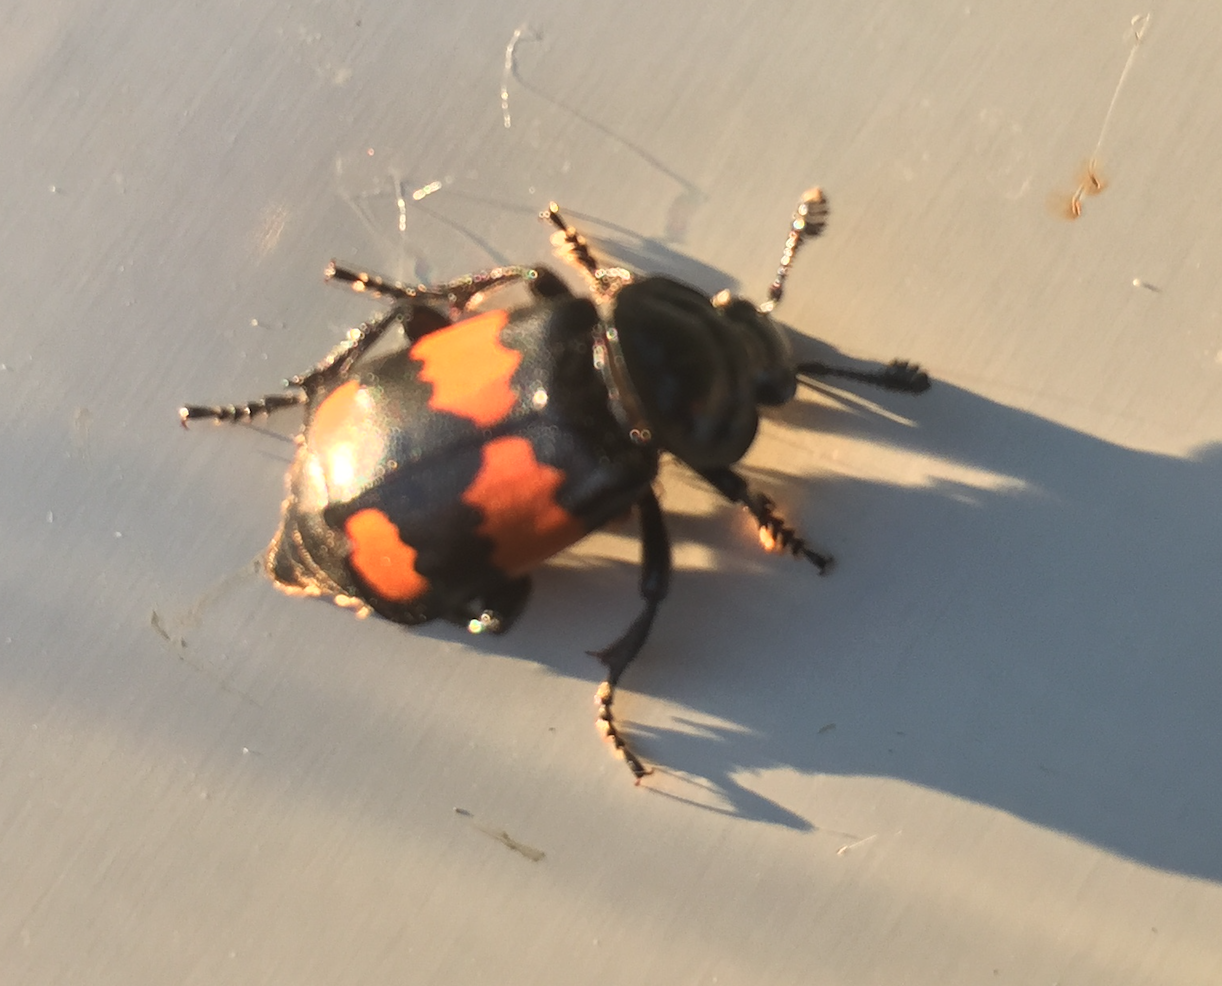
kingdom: Animalia
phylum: Arthropoda
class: Insecta
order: Coleoptera
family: Staphylinidae
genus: Nicrophorus
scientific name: Nicrophorus vespilloides
